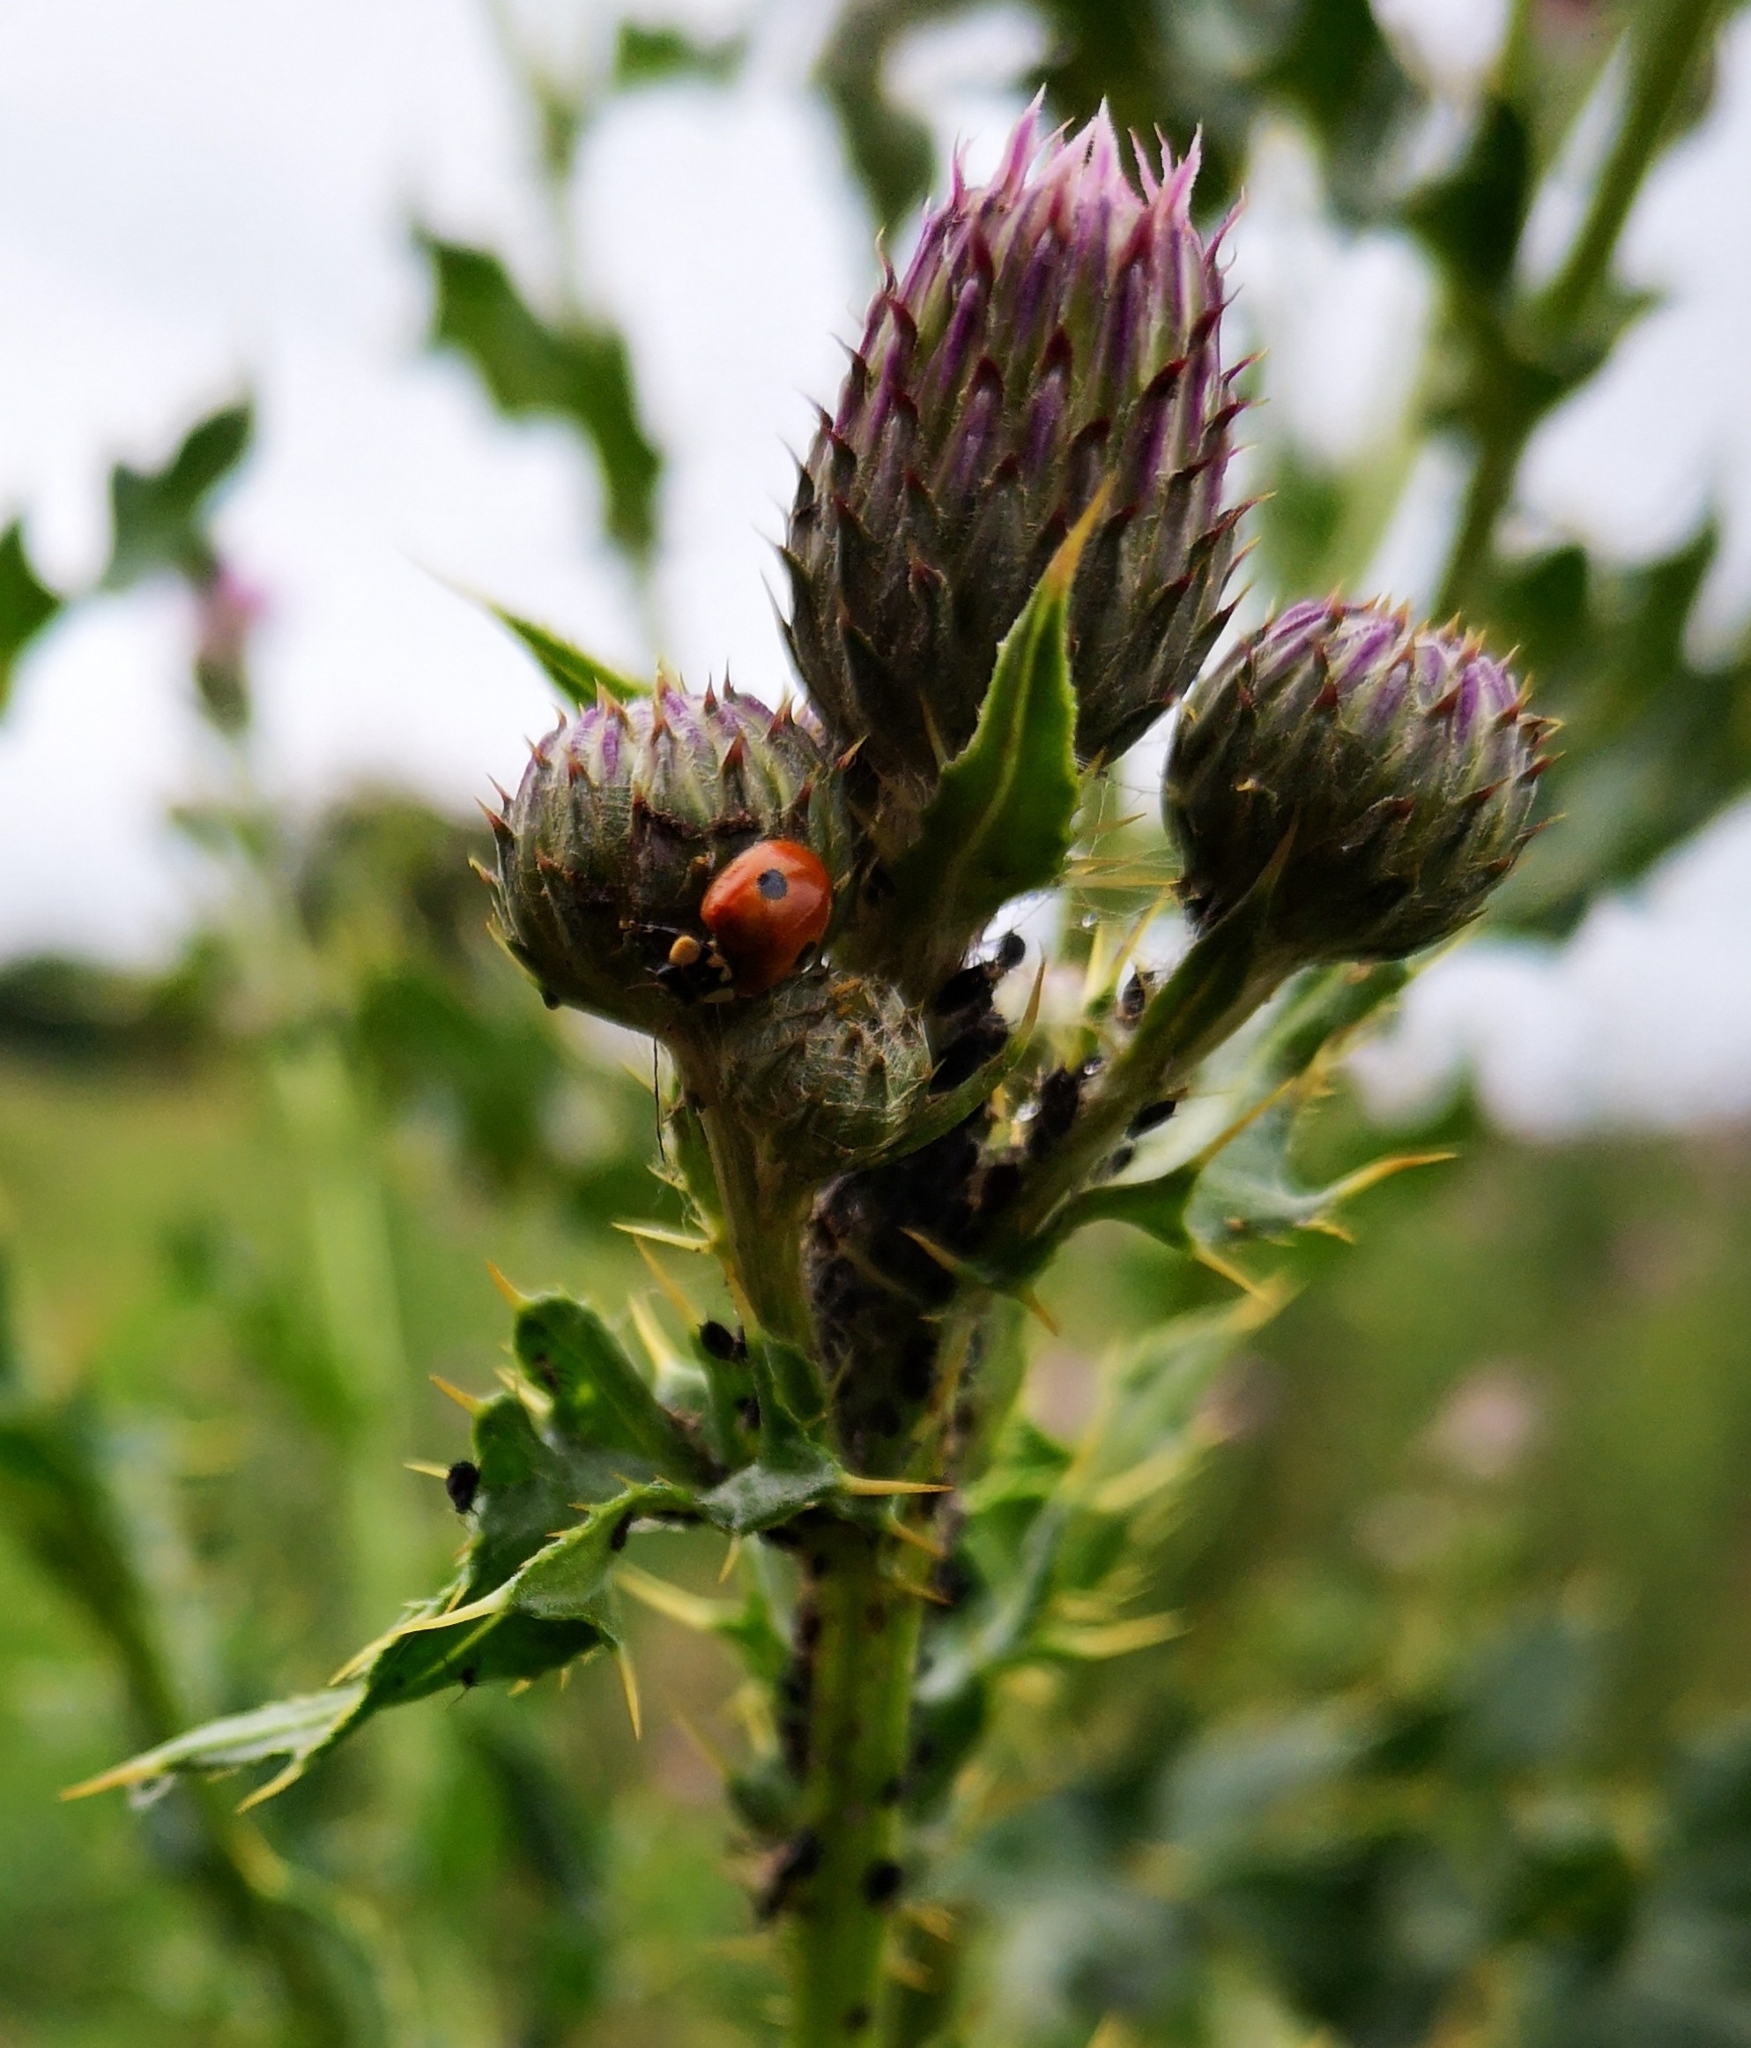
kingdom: Animalia
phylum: Arthropoda
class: Insecta
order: Coleoptera
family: Coccinellidae
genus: Adalia
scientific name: Adalia bipunctata
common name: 2-spot ladybird
